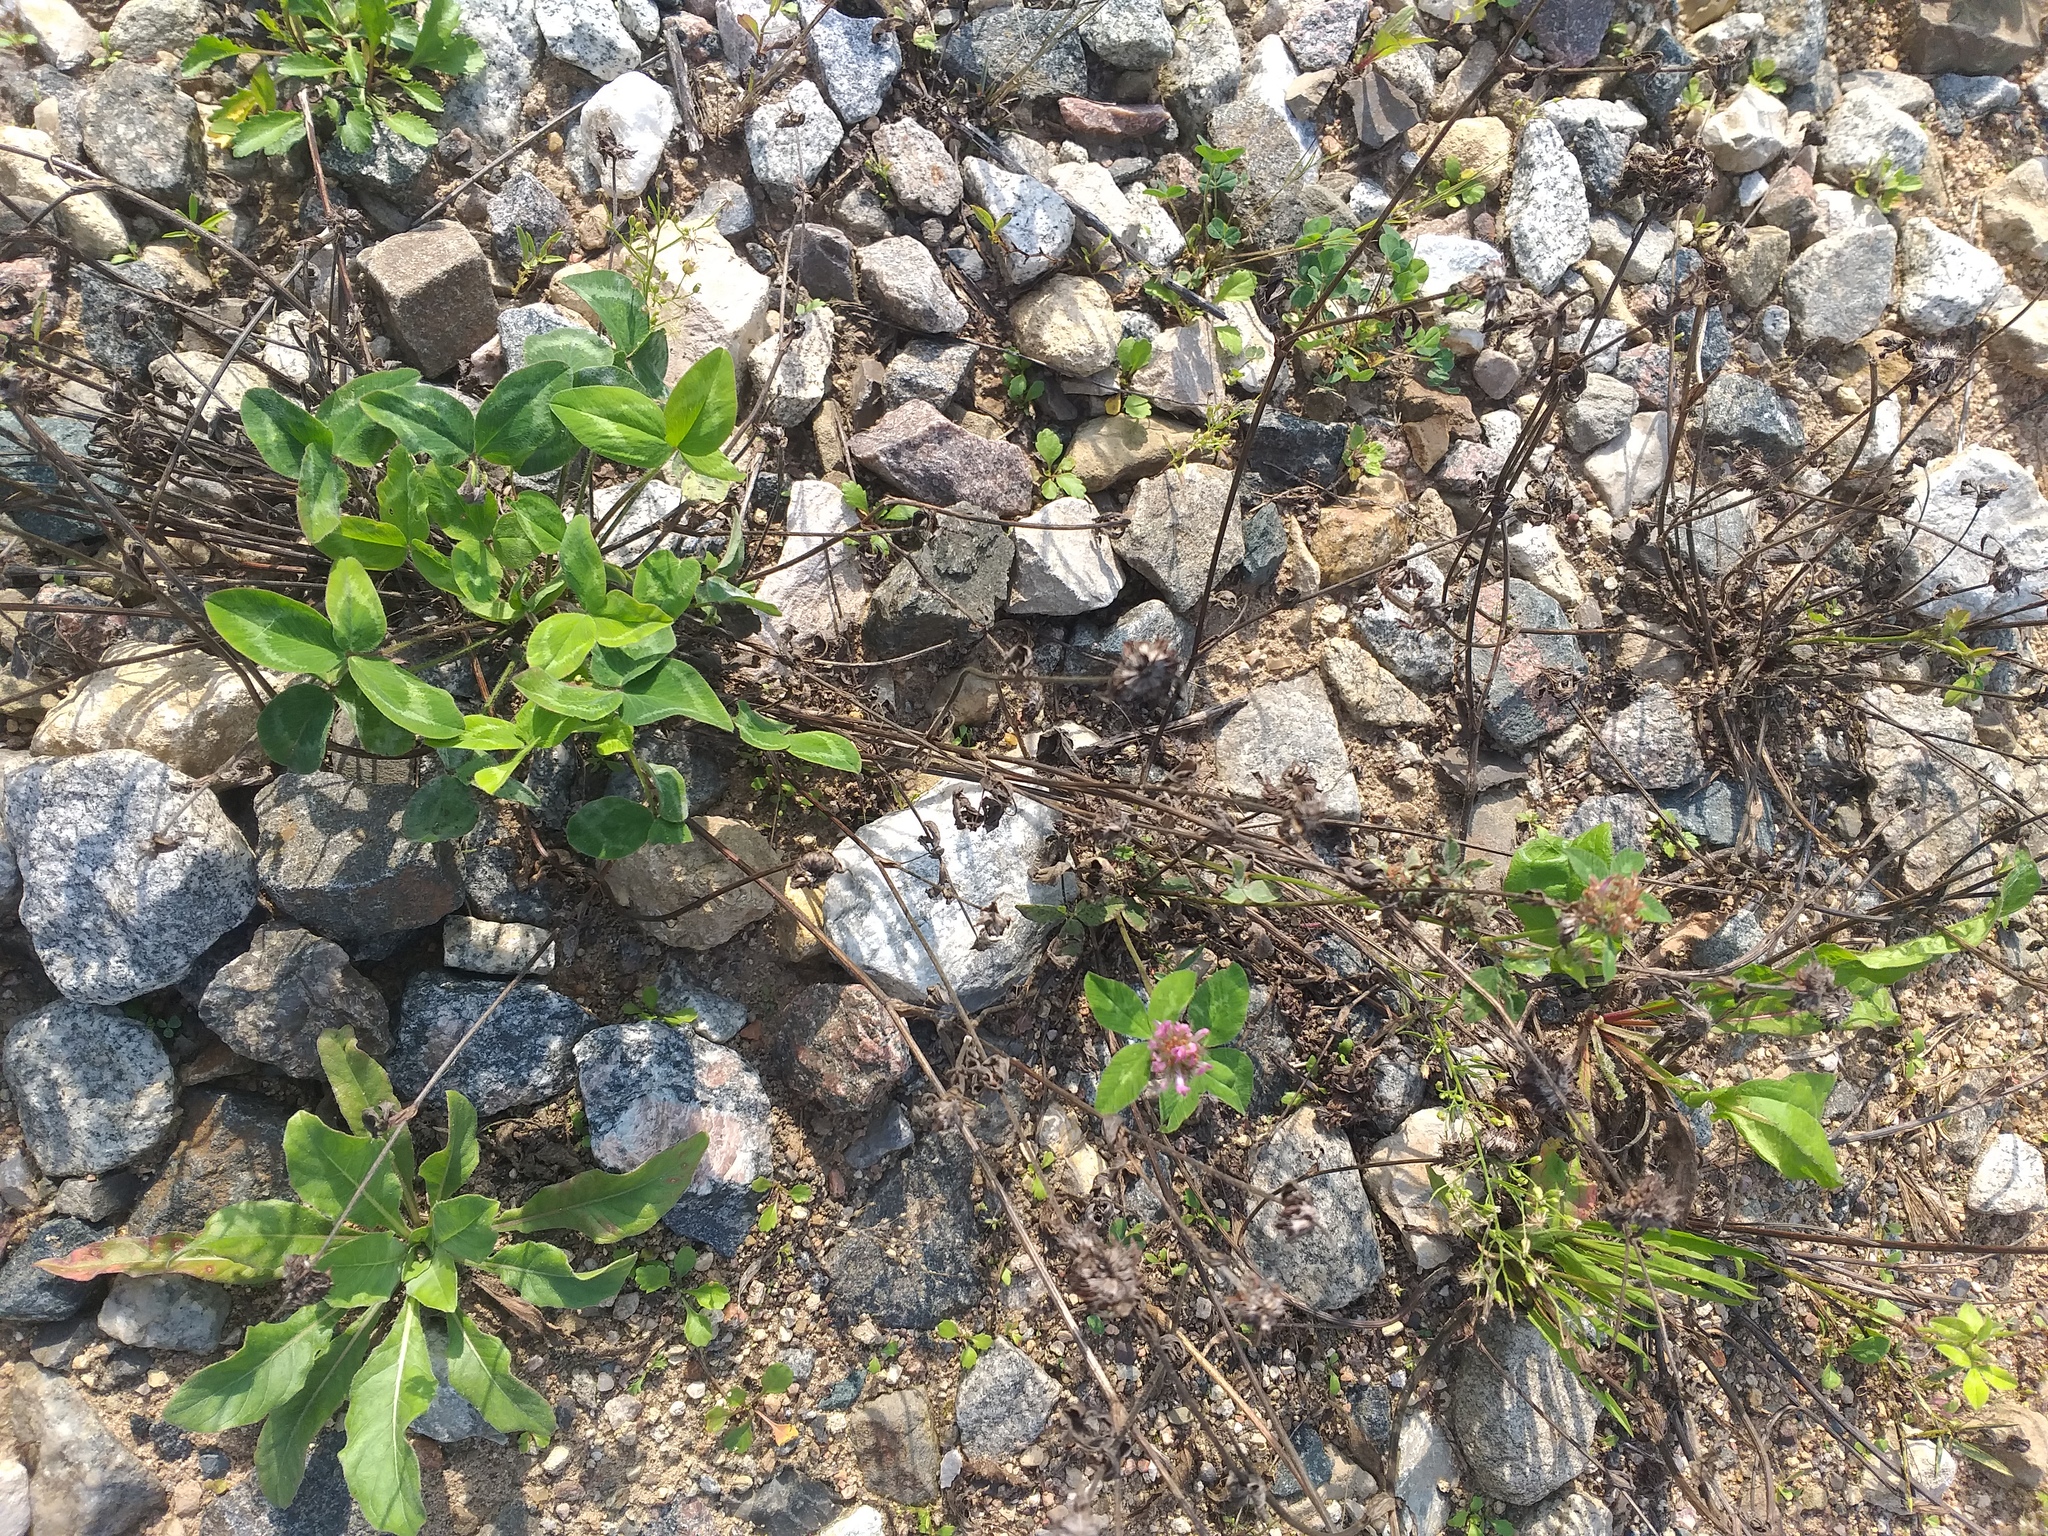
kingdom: Plantae
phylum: Tracheophyta
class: Magnoliopsida
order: Fabales
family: Fabaceae
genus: Trifolium
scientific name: Trifolium pratense
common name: Red clover
